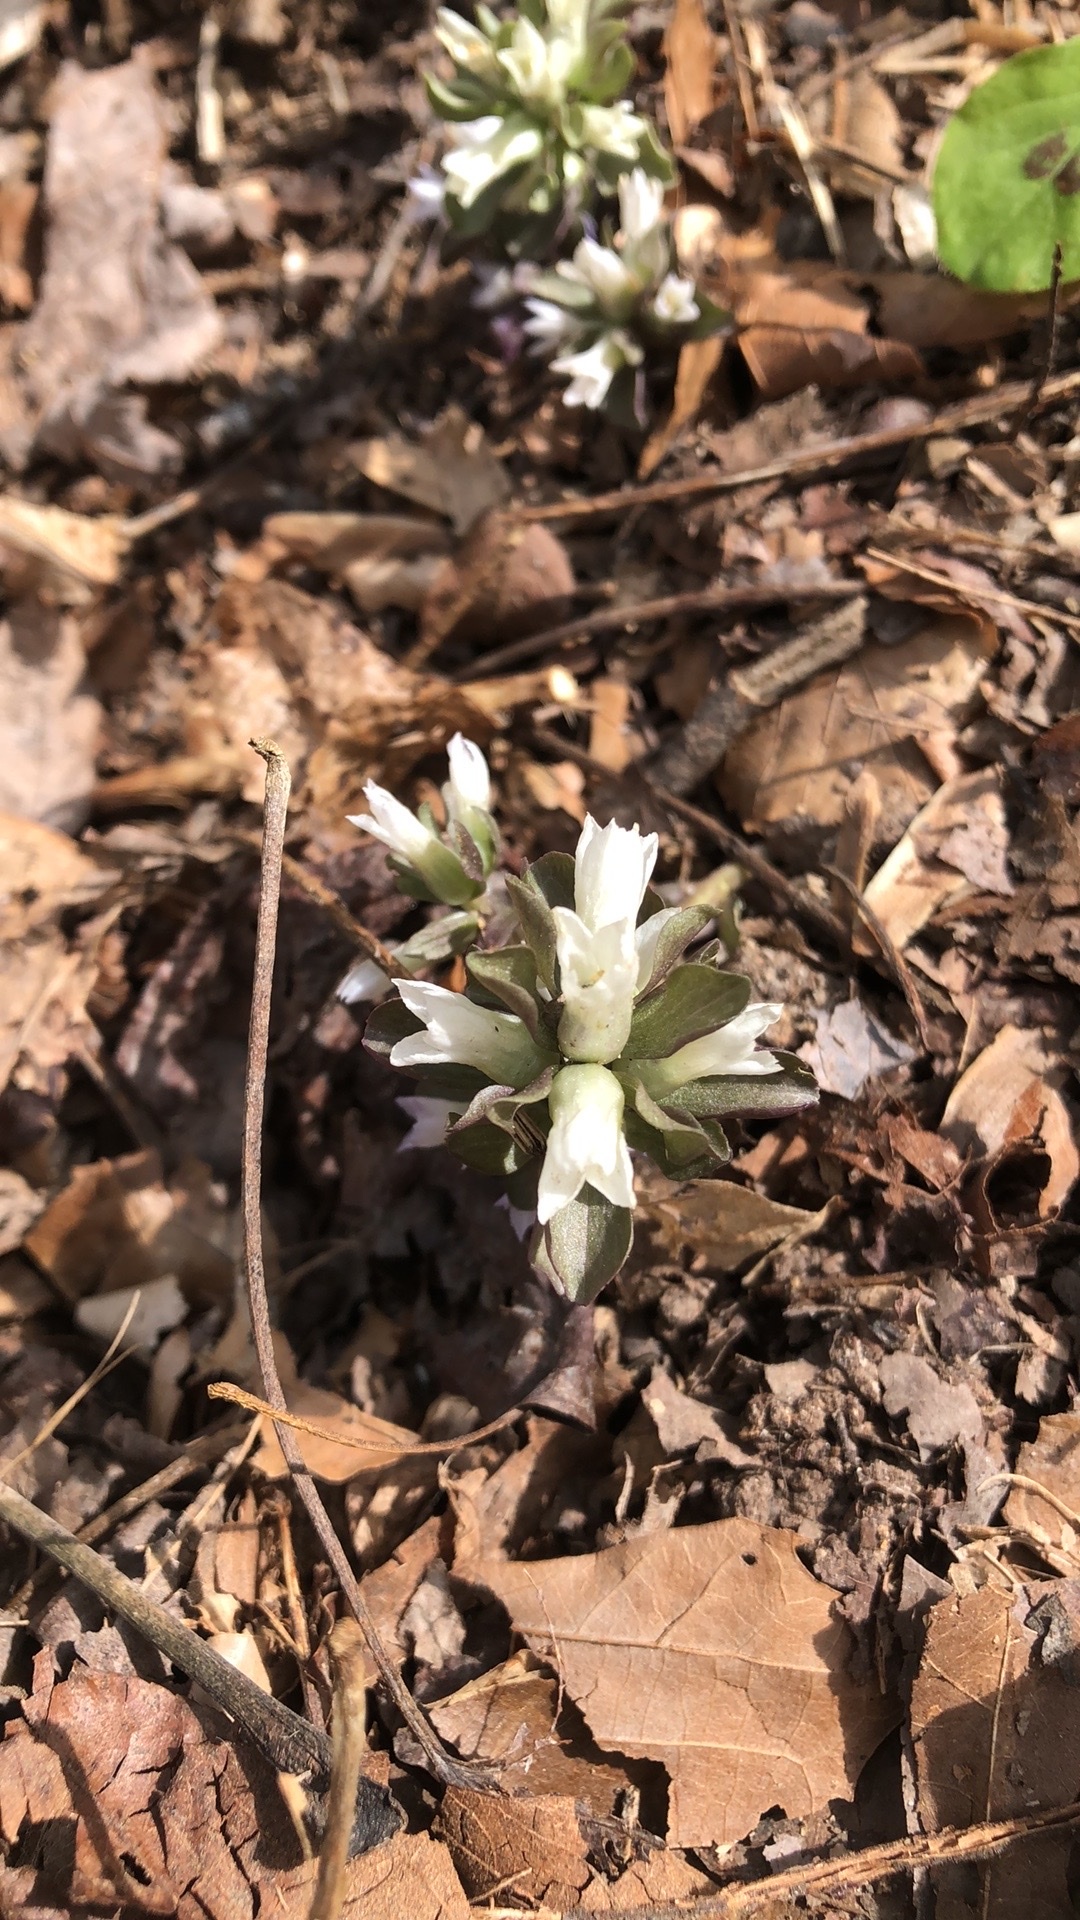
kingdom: Plantae
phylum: Tracheophyta
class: Magnoliopsida
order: Gentianales
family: Gentianaceae
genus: Obolaria
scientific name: Obolaria virginica
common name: Pennywort
